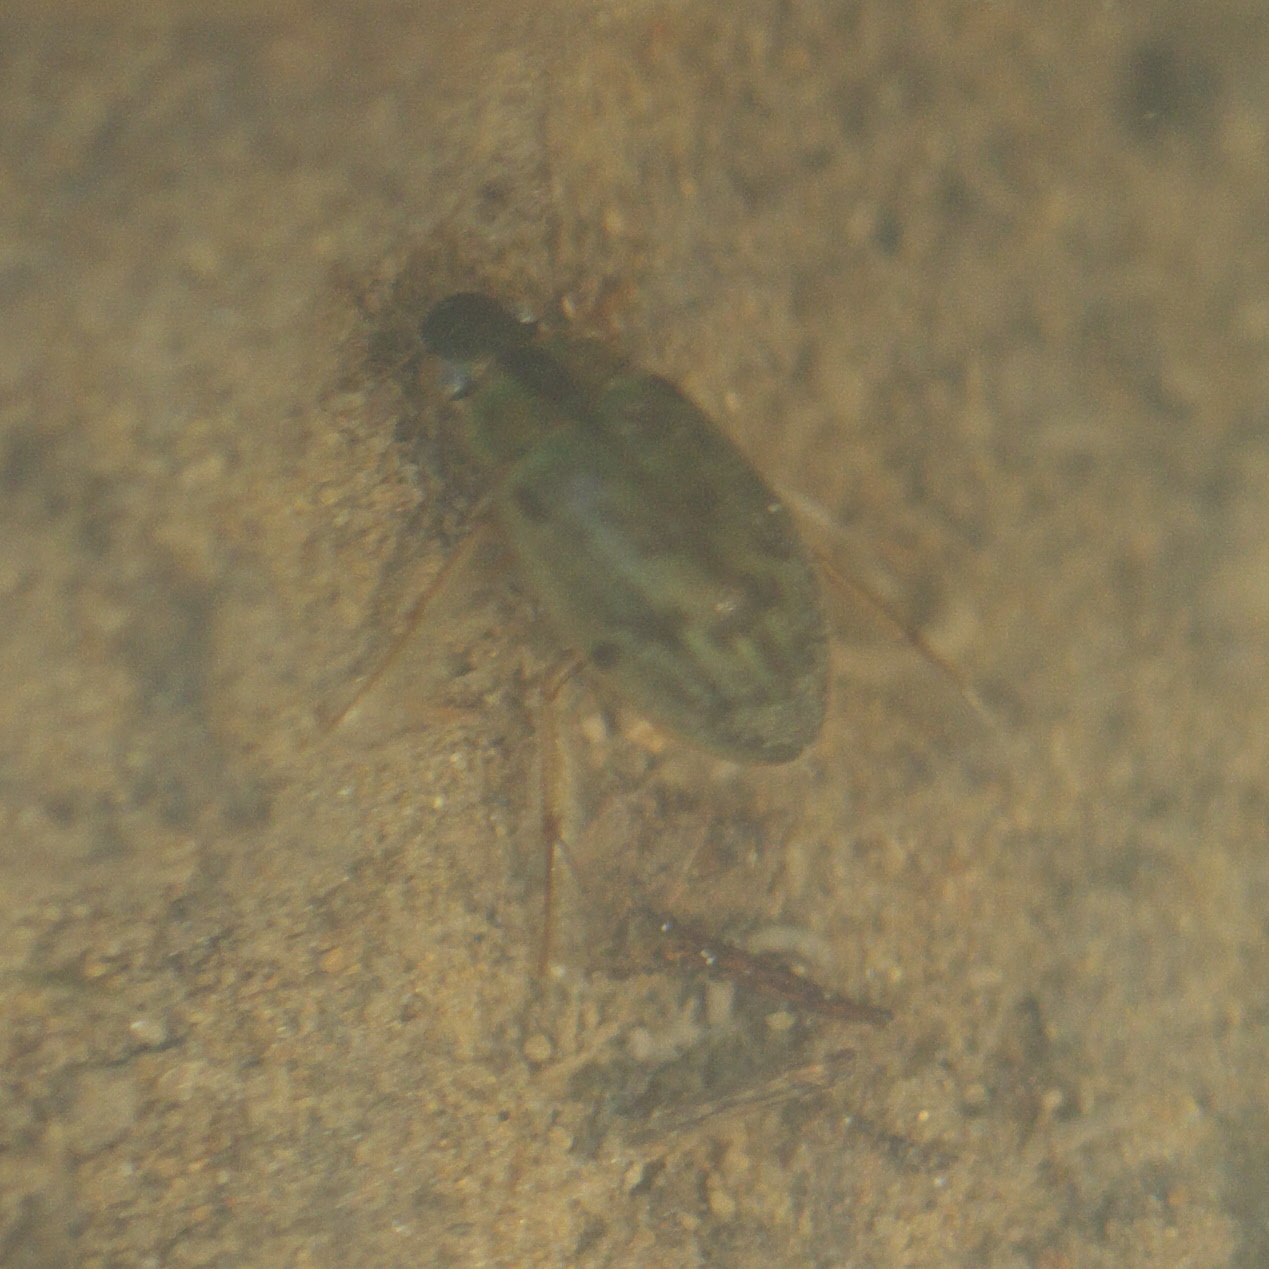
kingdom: Animalia
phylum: Arthropoda
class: Insecta
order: Coleoptera
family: Hydrophilidae
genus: Berosus
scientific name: Berosus
